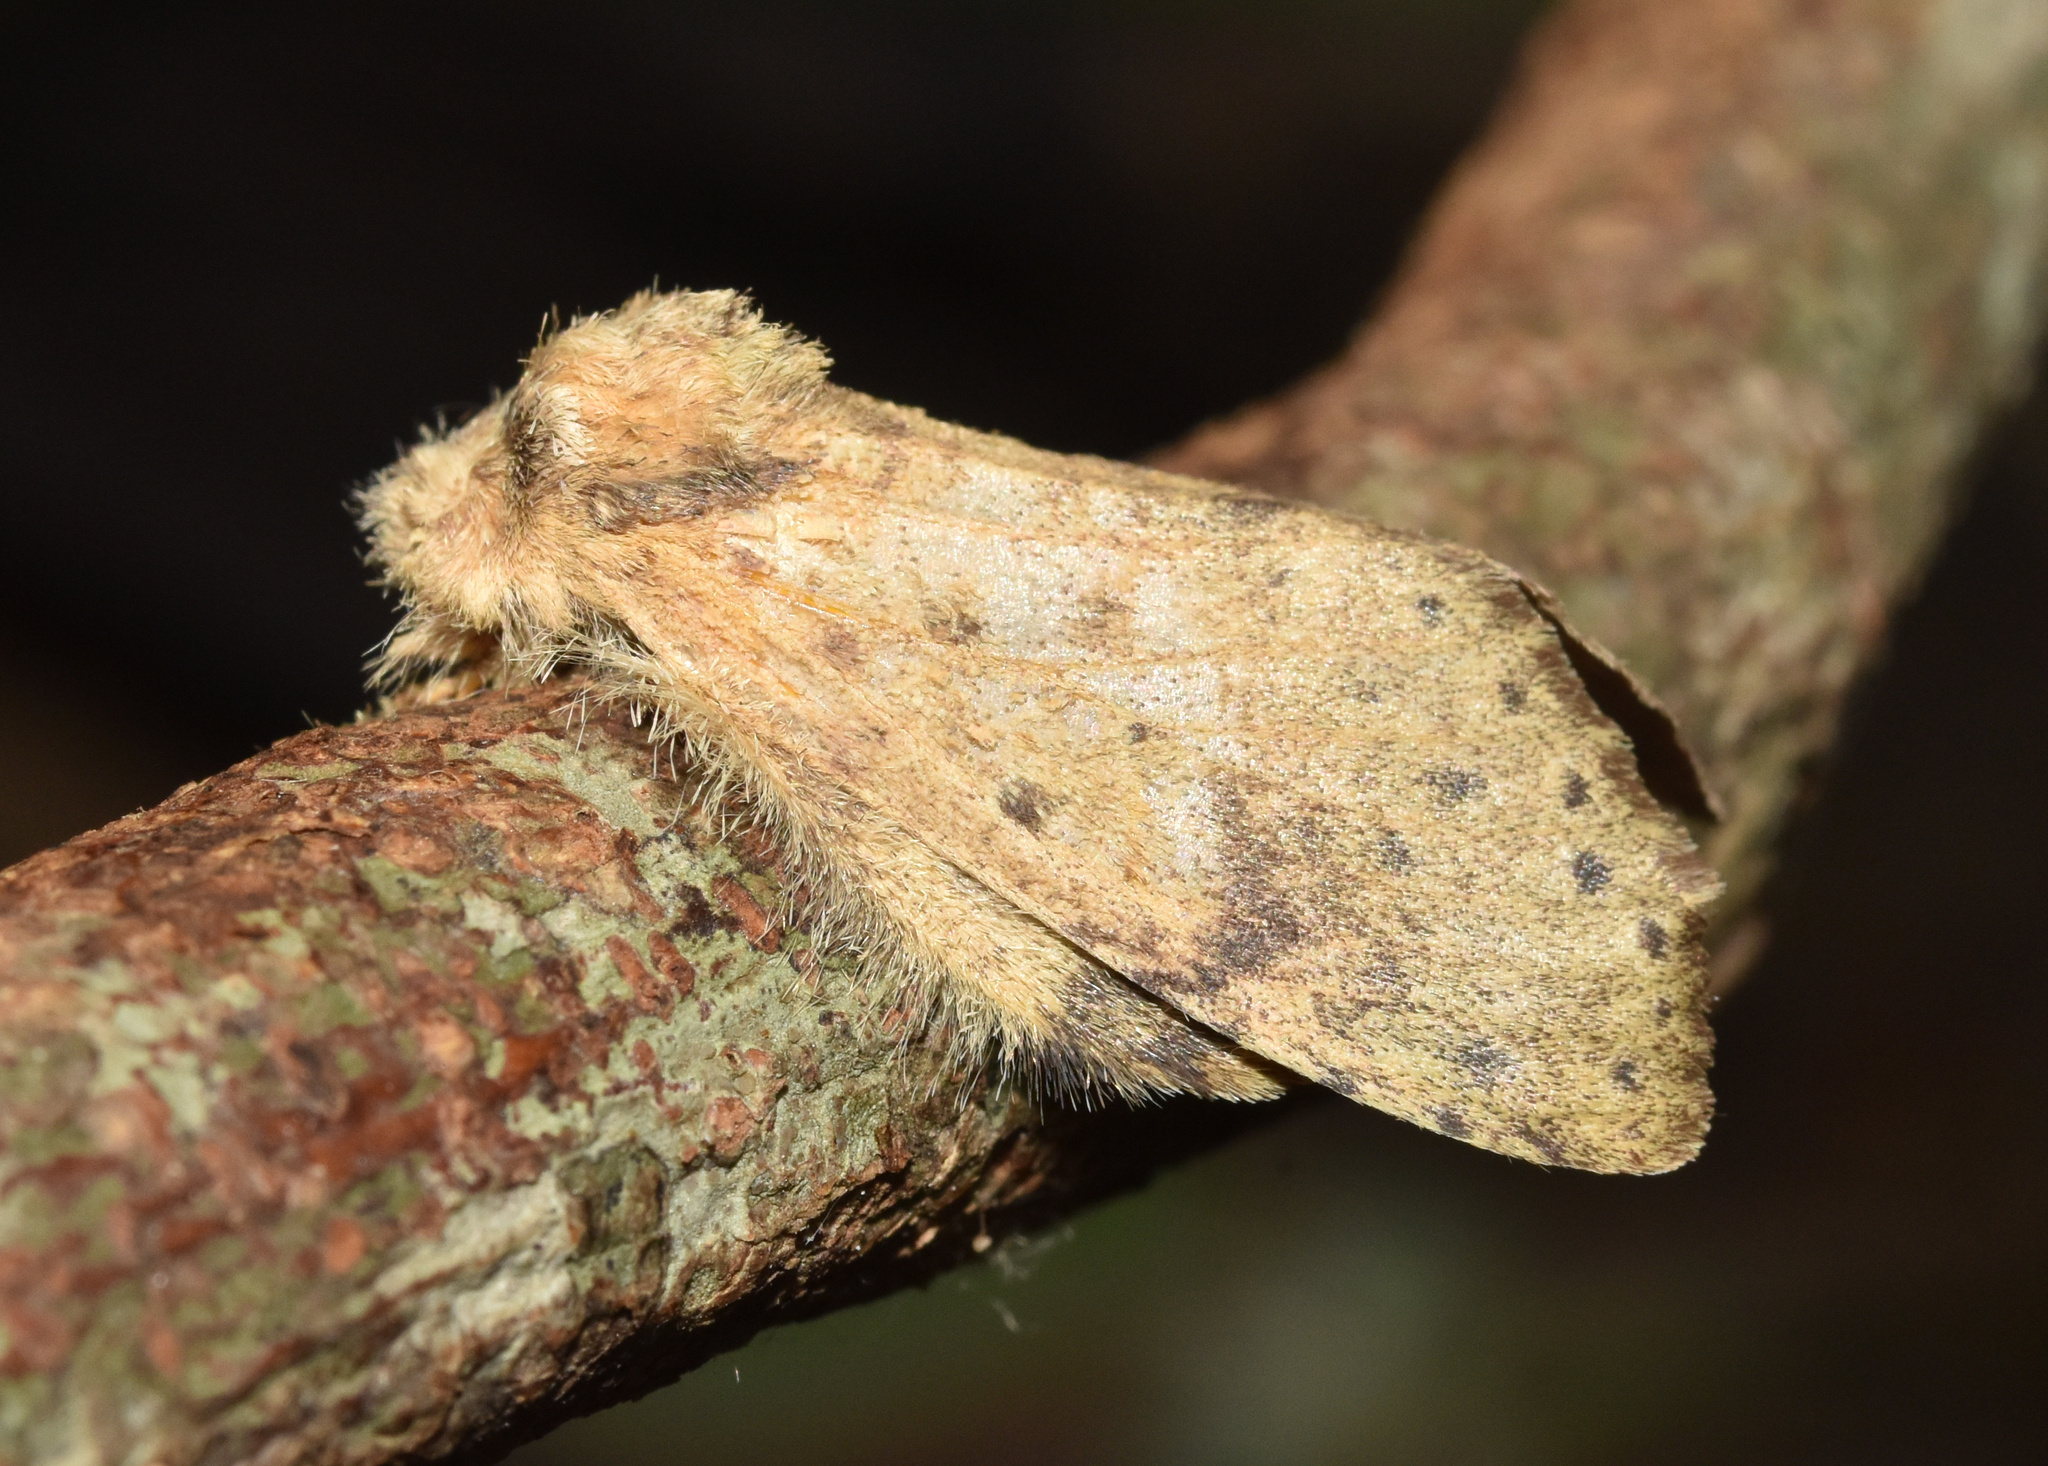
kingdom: Animalia
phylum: Arthropoda
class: Insecta
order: Lepidoptera
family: Notodontidae
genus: Desmeocraera
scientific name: Desmeocraera latex
